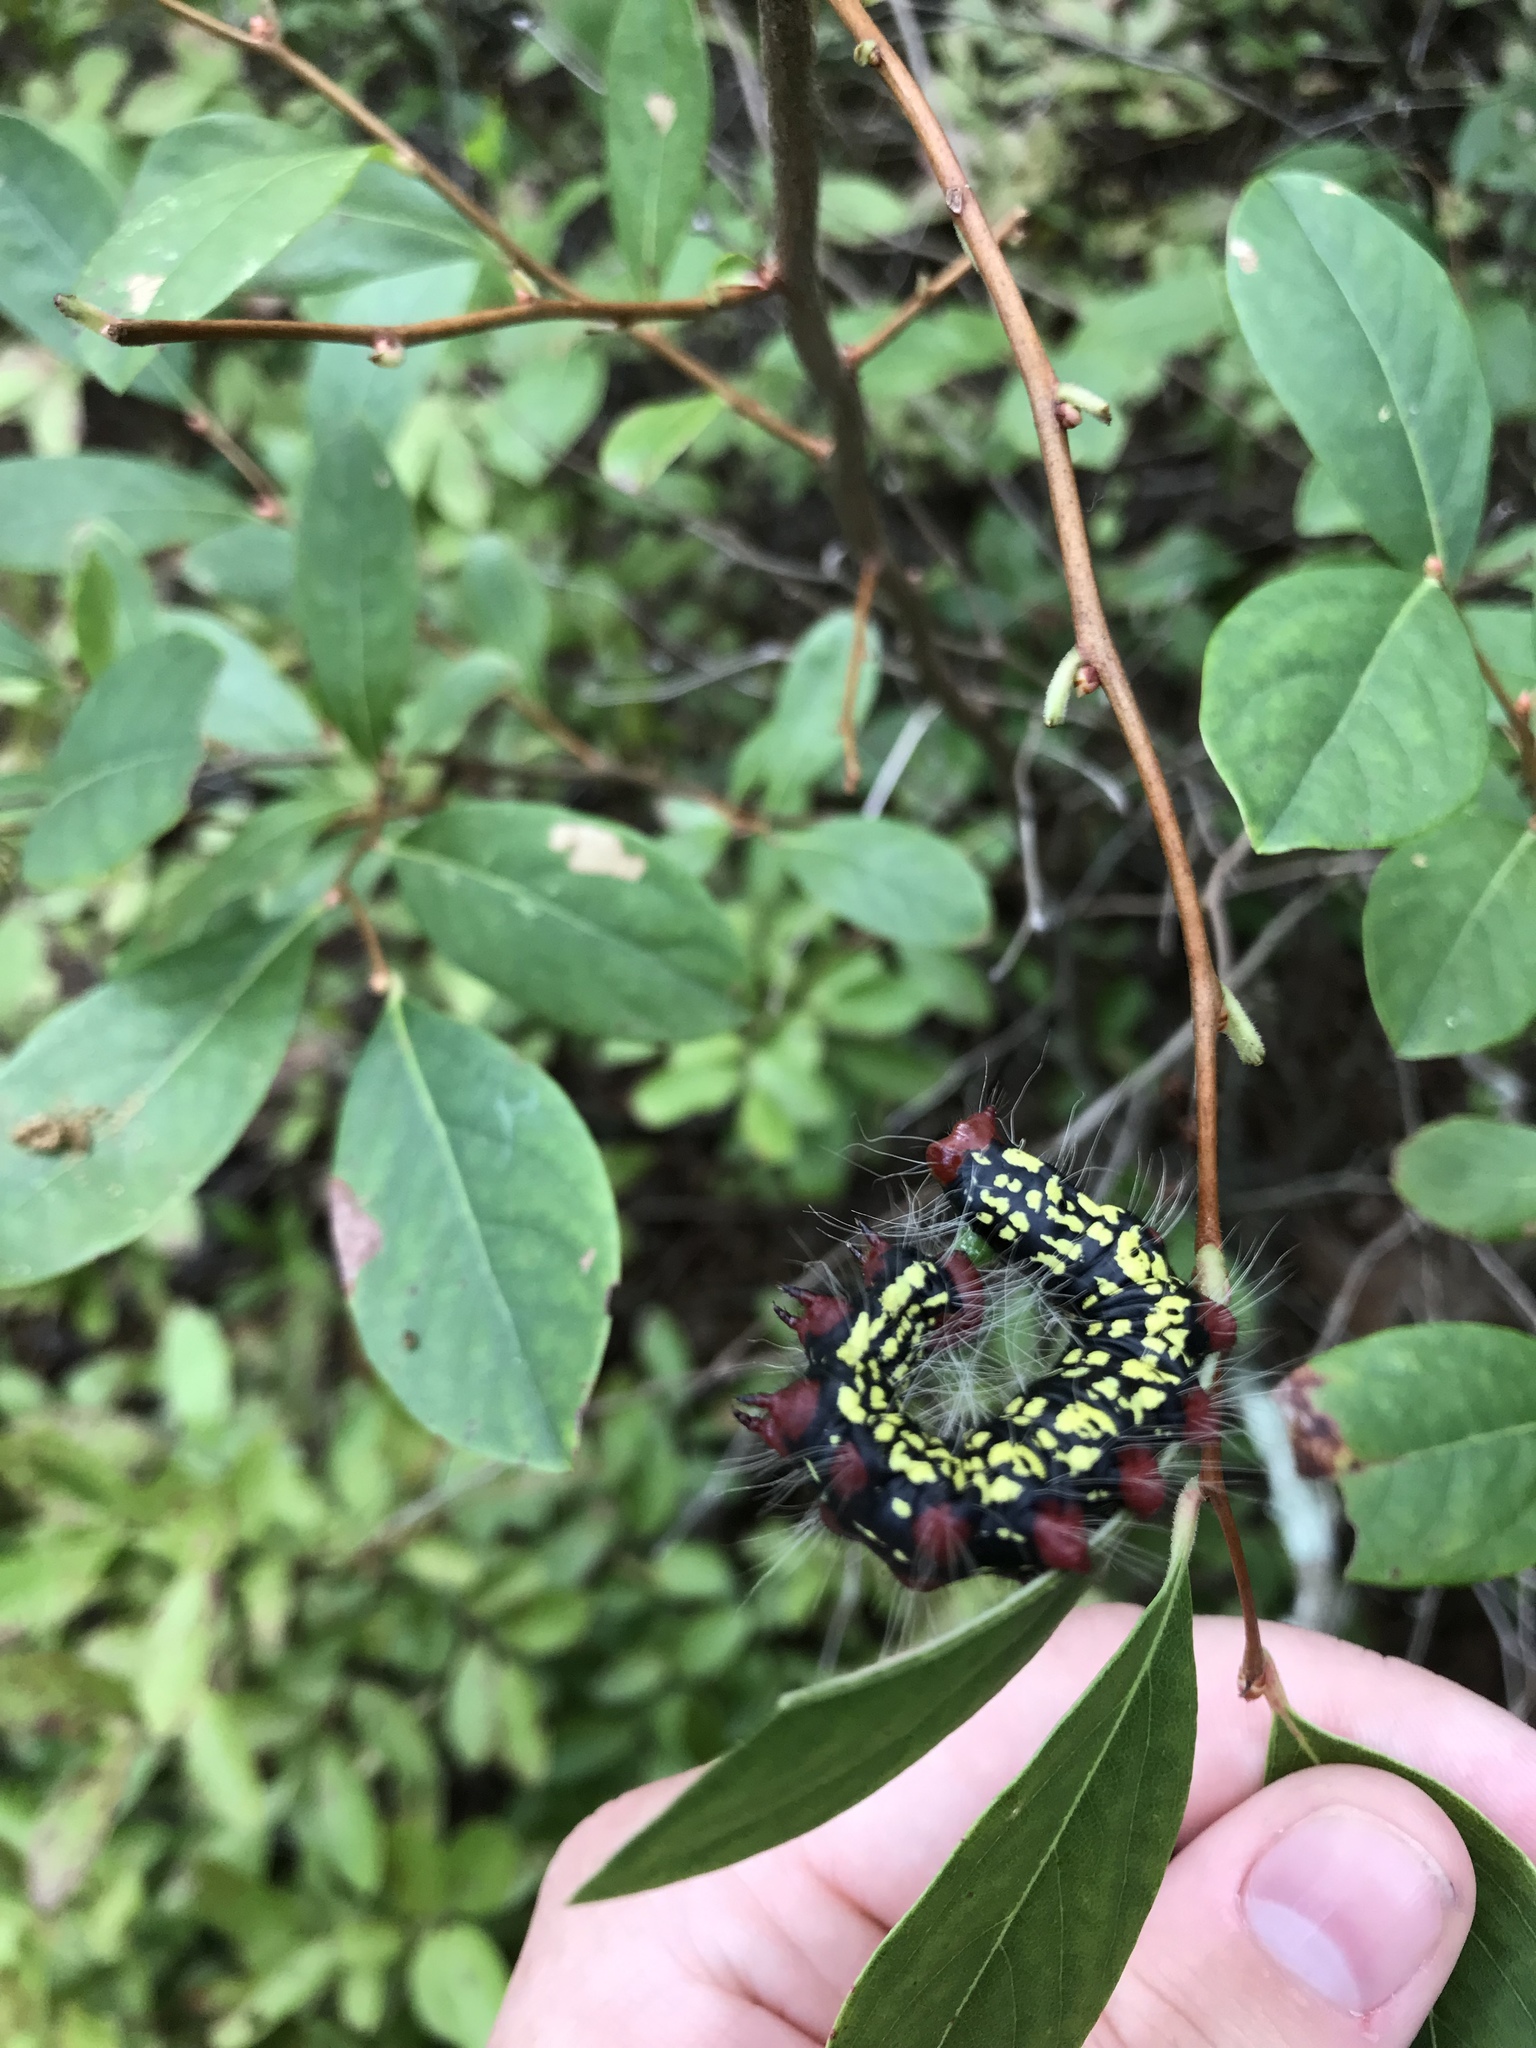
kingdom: Animalia
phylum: Arthropoda
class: Insecta
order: Lepidoptera
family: Notodontidae
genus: Datana
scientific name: Datana major
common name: Azalea caterpillar
